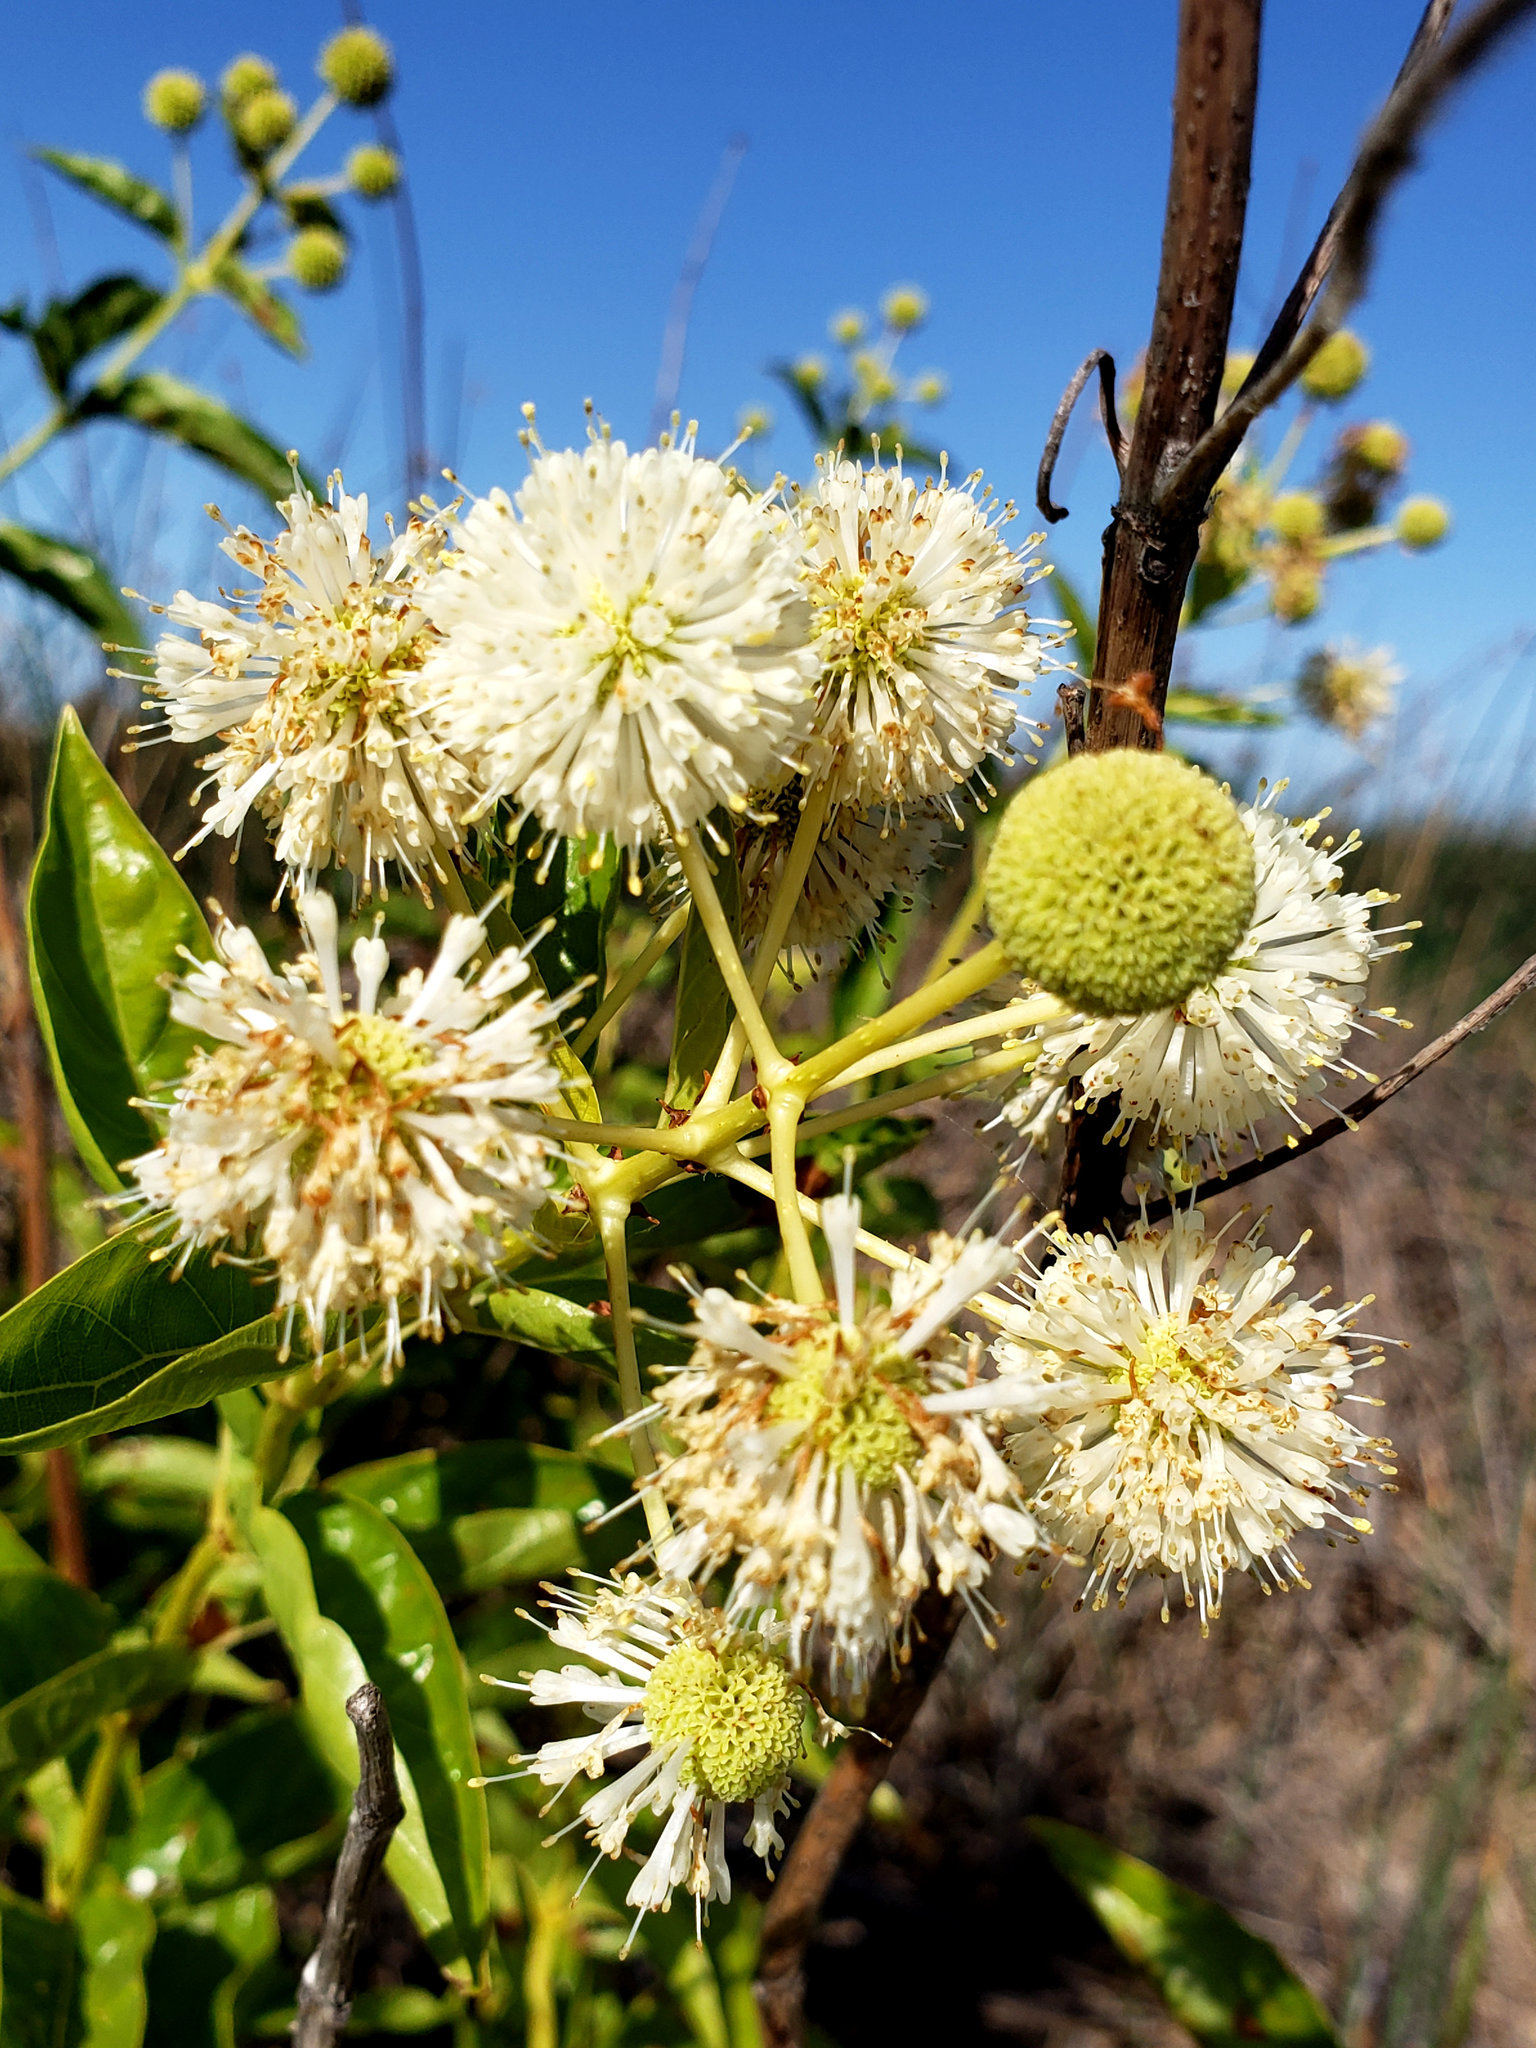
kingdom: Plantae
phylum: Tracheophyta
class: Magnoliopsida
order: Gentianales
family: Rubiaceae
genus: Cephalanthus
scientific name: Cephalanthus occidentalis
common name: Button-willow
